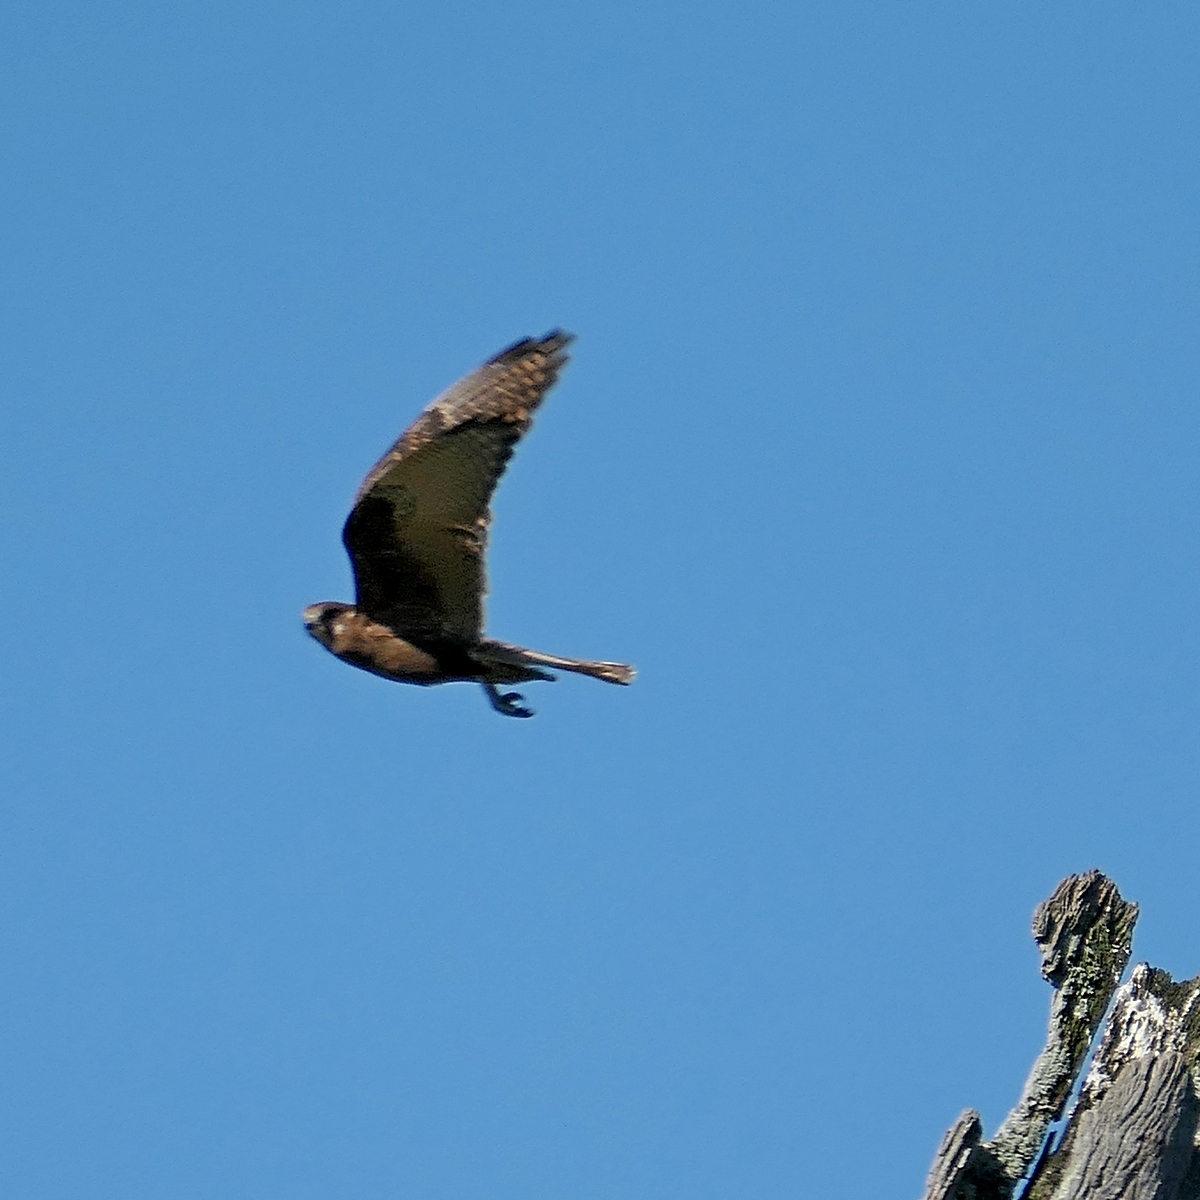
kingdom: Animalia
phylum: Chordata
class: Aves
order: Falconiformes
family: Falconidae
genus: Falco
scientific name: Falco berigora
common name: Brown falcon
